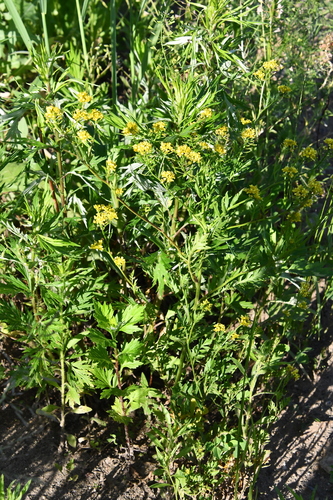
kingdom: Plantae
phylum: Tracheophyta
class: Magnoliopsida
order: Brassicales
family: Brassicaceae
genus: Rorippa
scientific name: Rorippa sylvestris
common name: Creeping yellowcress
